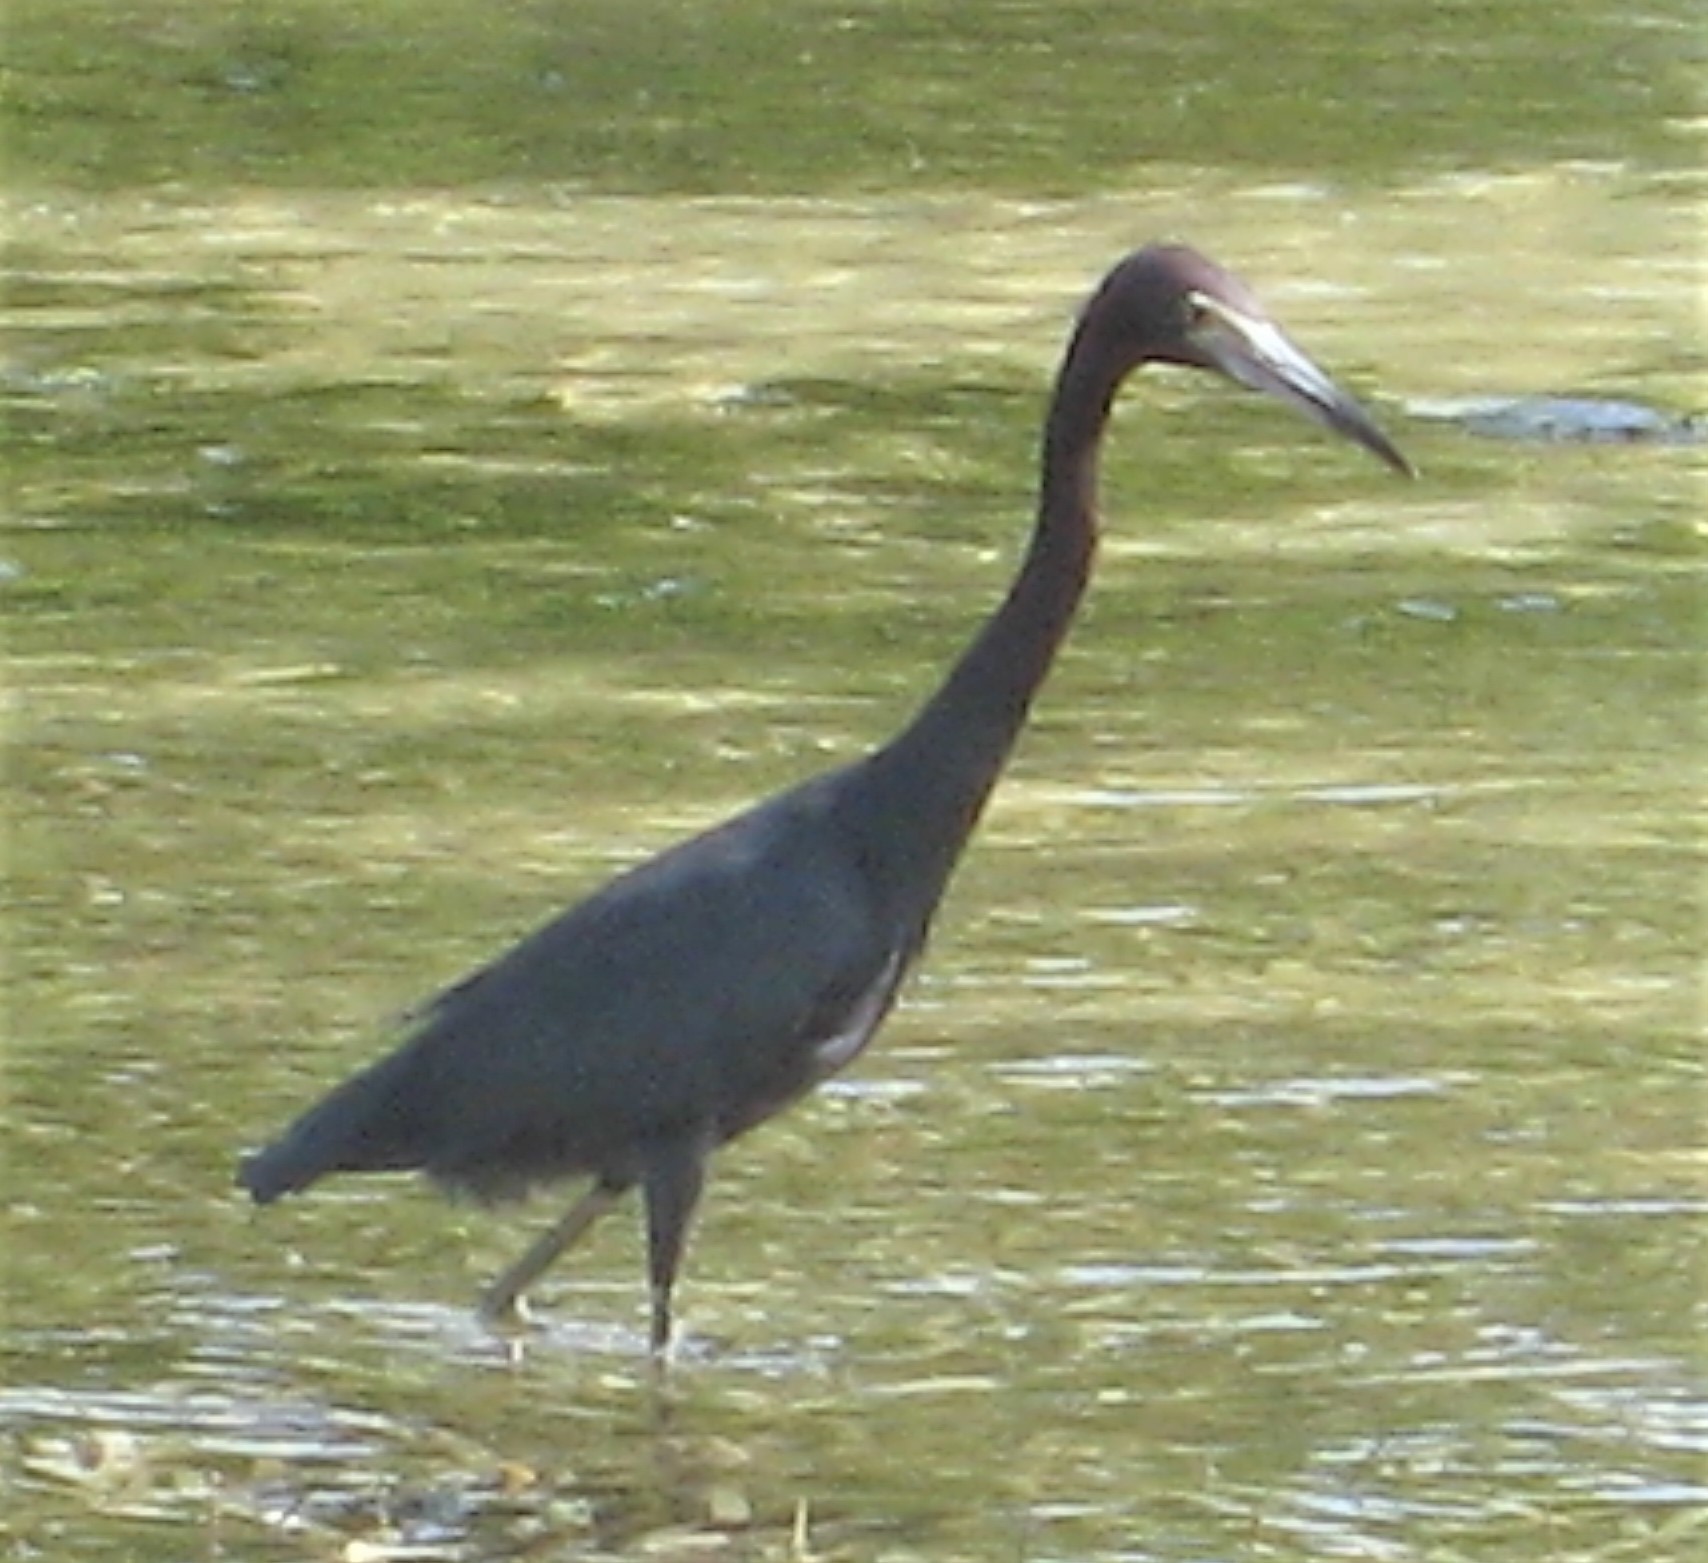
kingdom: Animalia
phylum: Chordata
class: Aves
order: Pelecaniformes
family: Ardeidae
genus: Egretta
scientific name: Egretta caerulea
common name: Little blue heron
